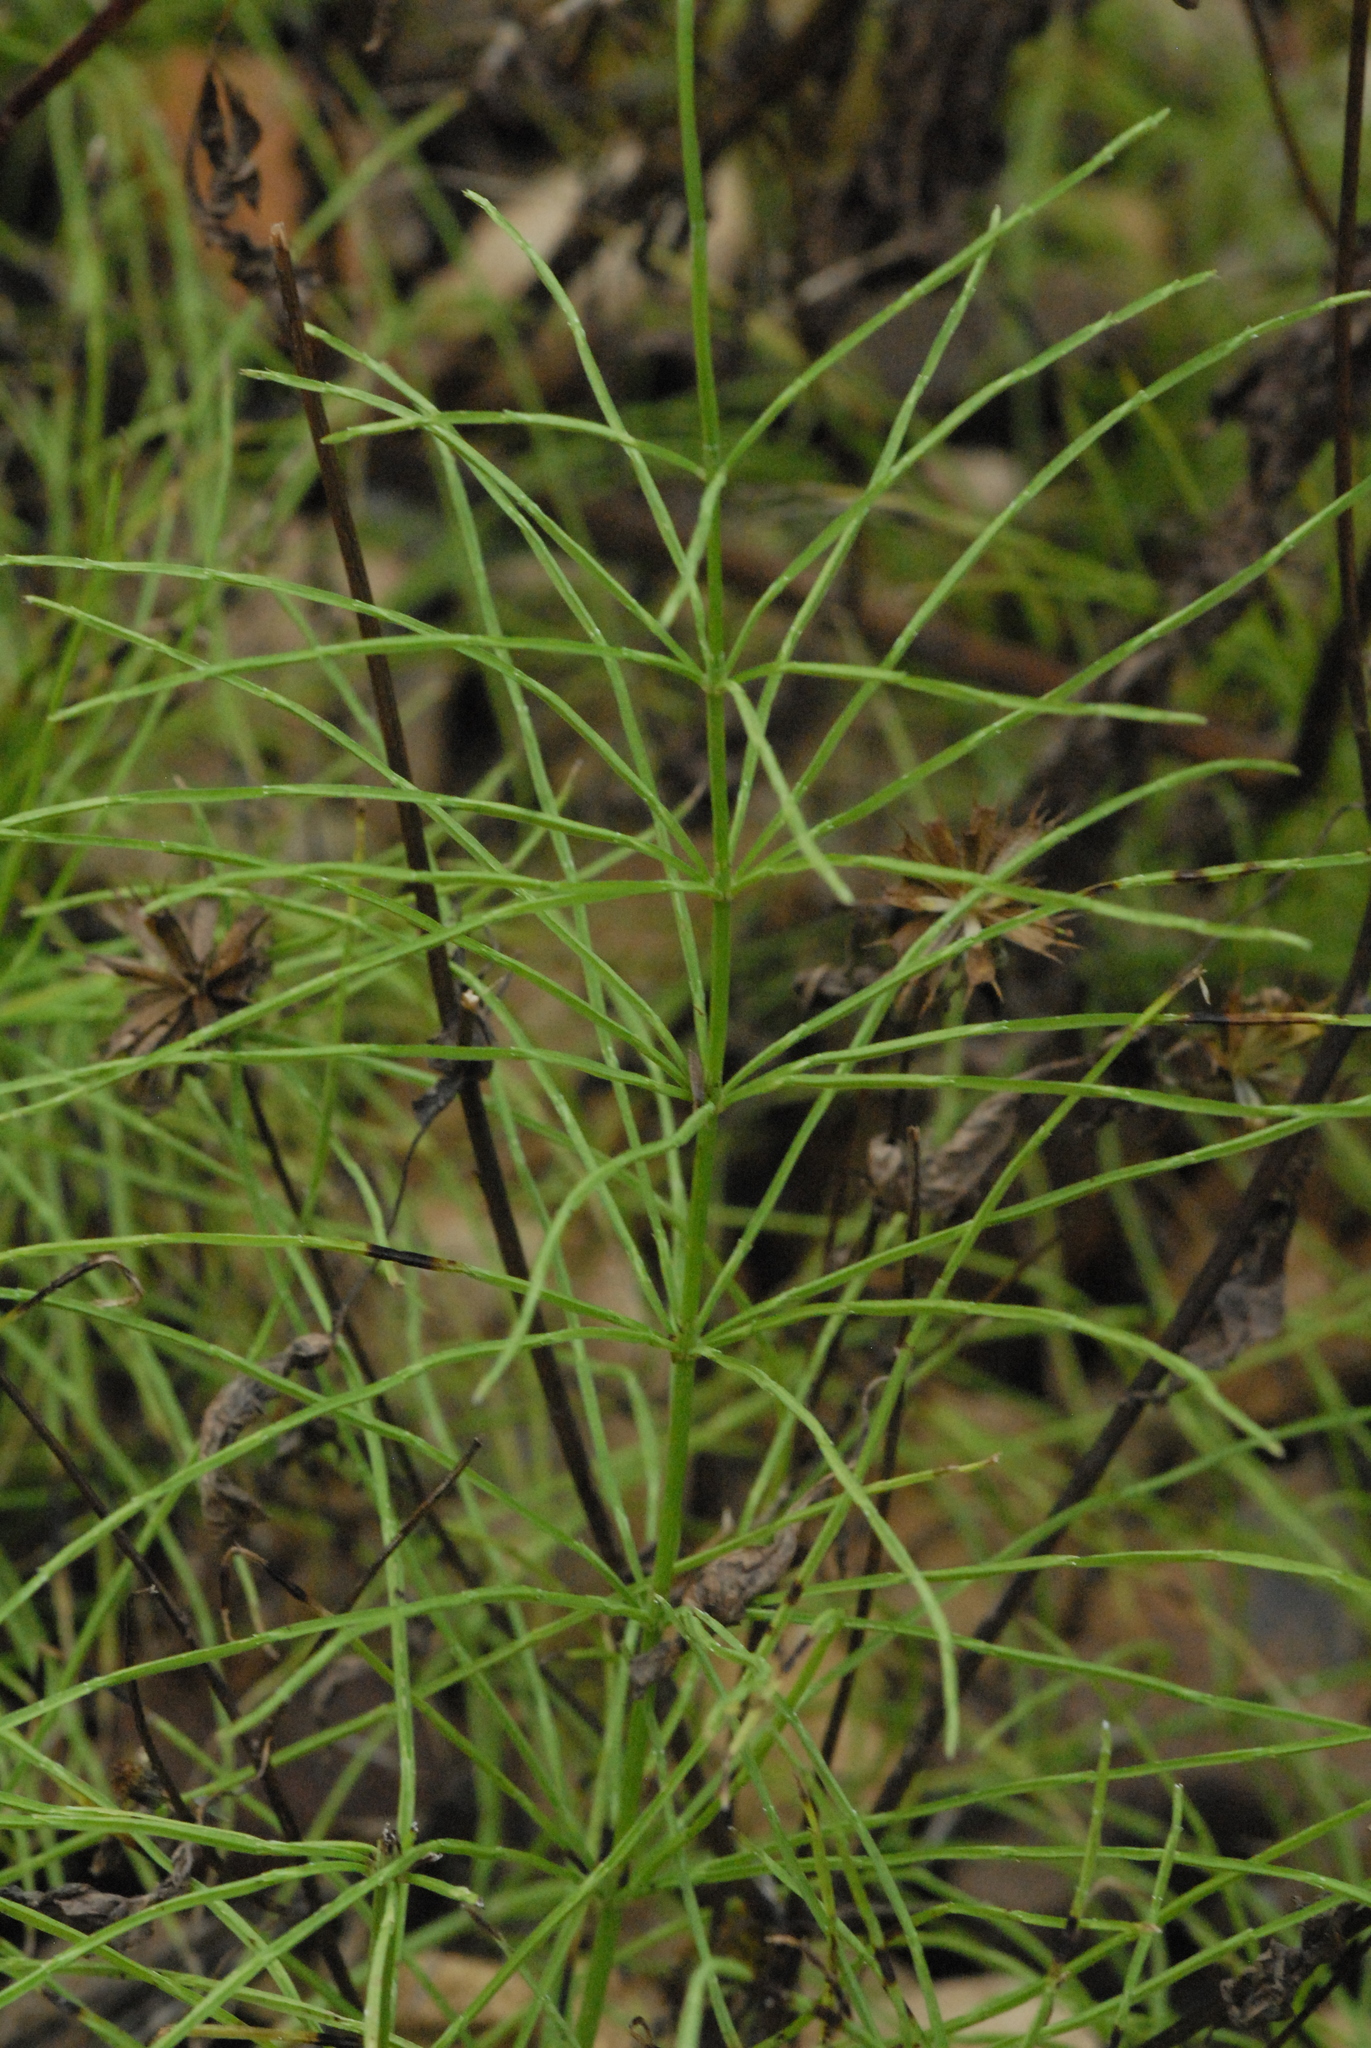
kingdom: Plantae
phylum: Tracheophyta
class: Polypodiopsida
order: Equisetales
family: Equisetaceae
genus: Equisetum
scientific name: Equisetum arvense
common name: Field horsetail
